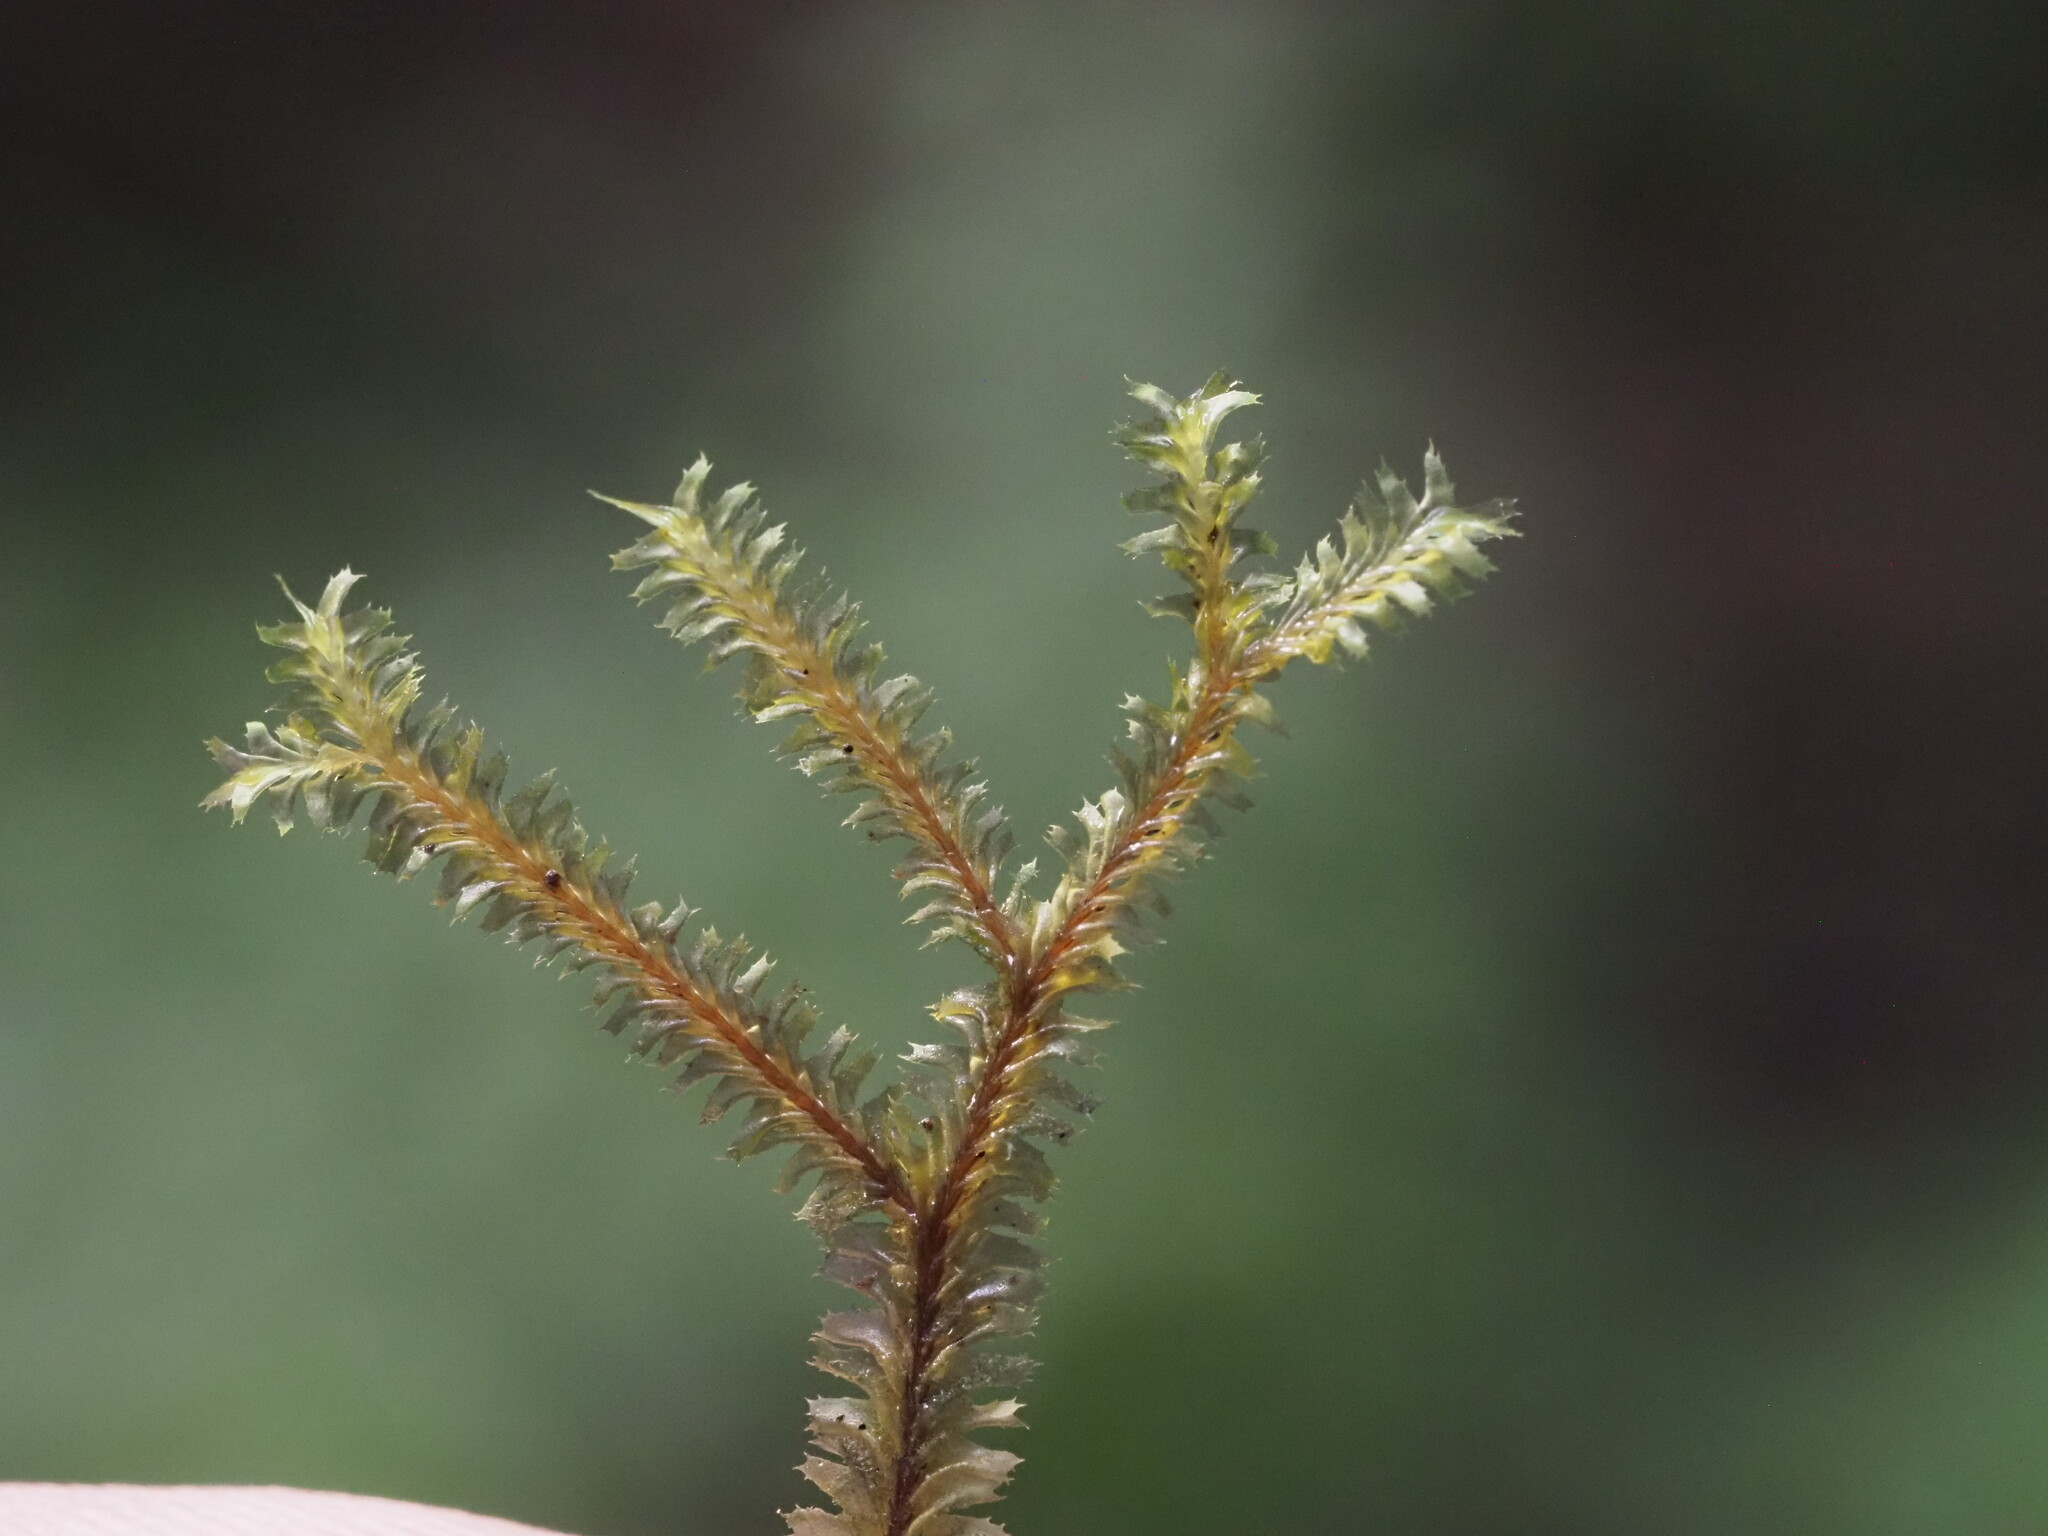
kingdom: Plantae
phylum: Marchantiophyta
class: Jungermanniopsida
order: Jungermanniales
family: Plagiochilaceae
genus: Plagiochila
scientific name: Plagiochila remyana
